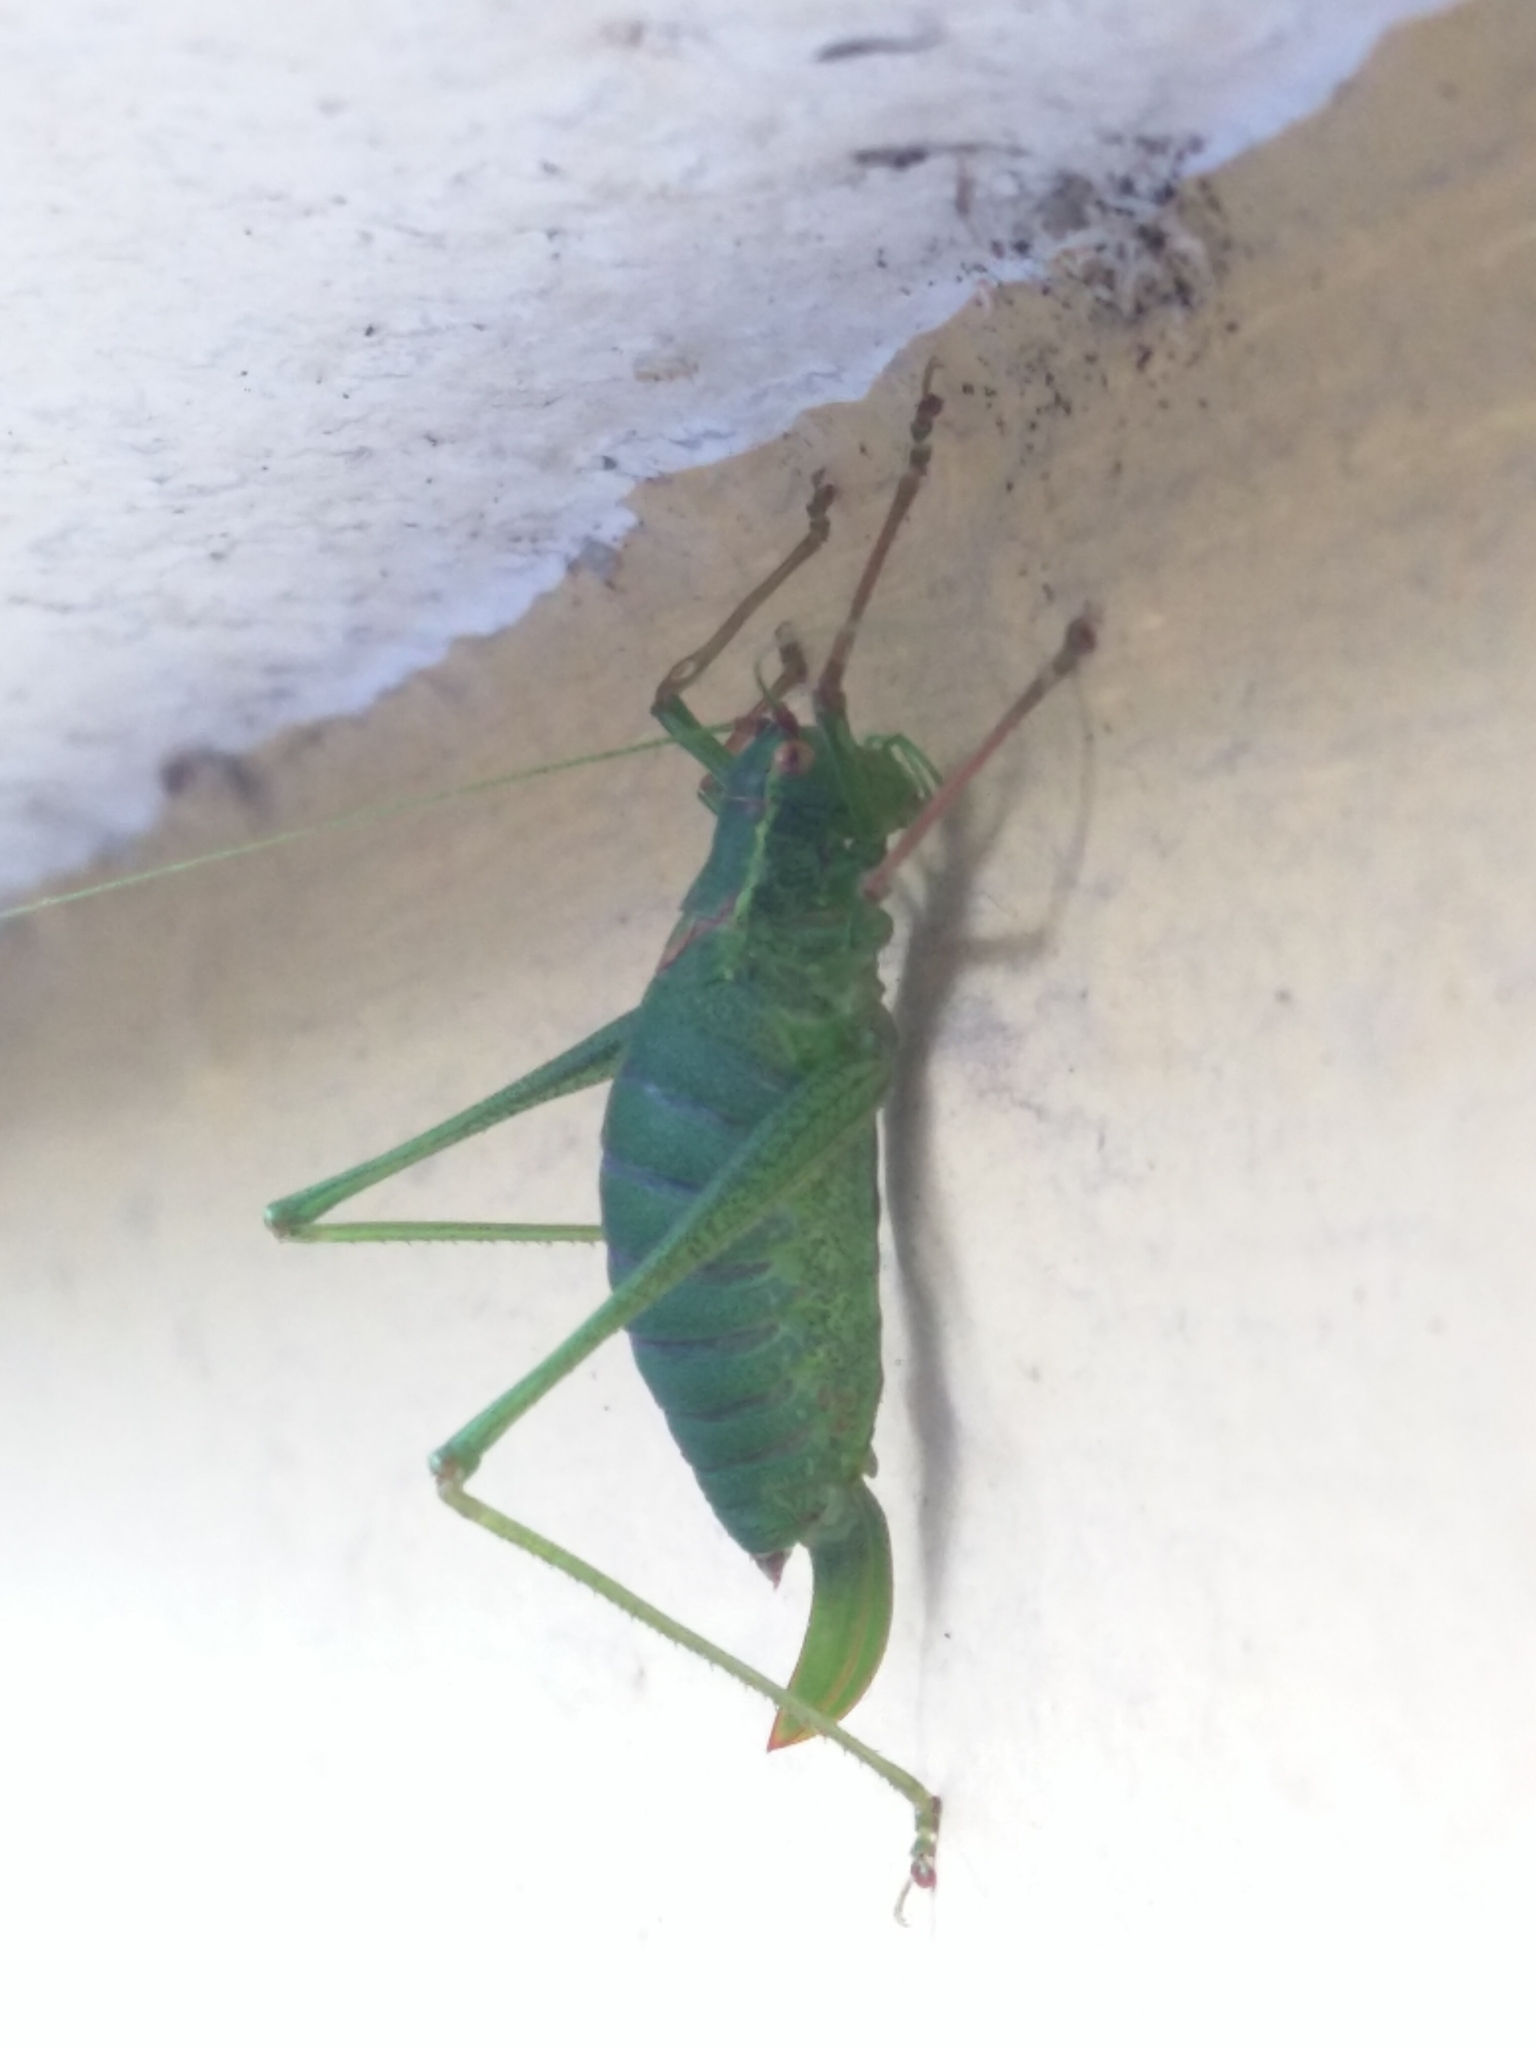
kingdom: Animalia
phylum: Arthropoda
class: Insecta
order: Orthoptera
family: Tettigoniidae
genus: Leptophyes
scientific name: Leptophyes punctatissima
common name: Speckled bush-cricket
